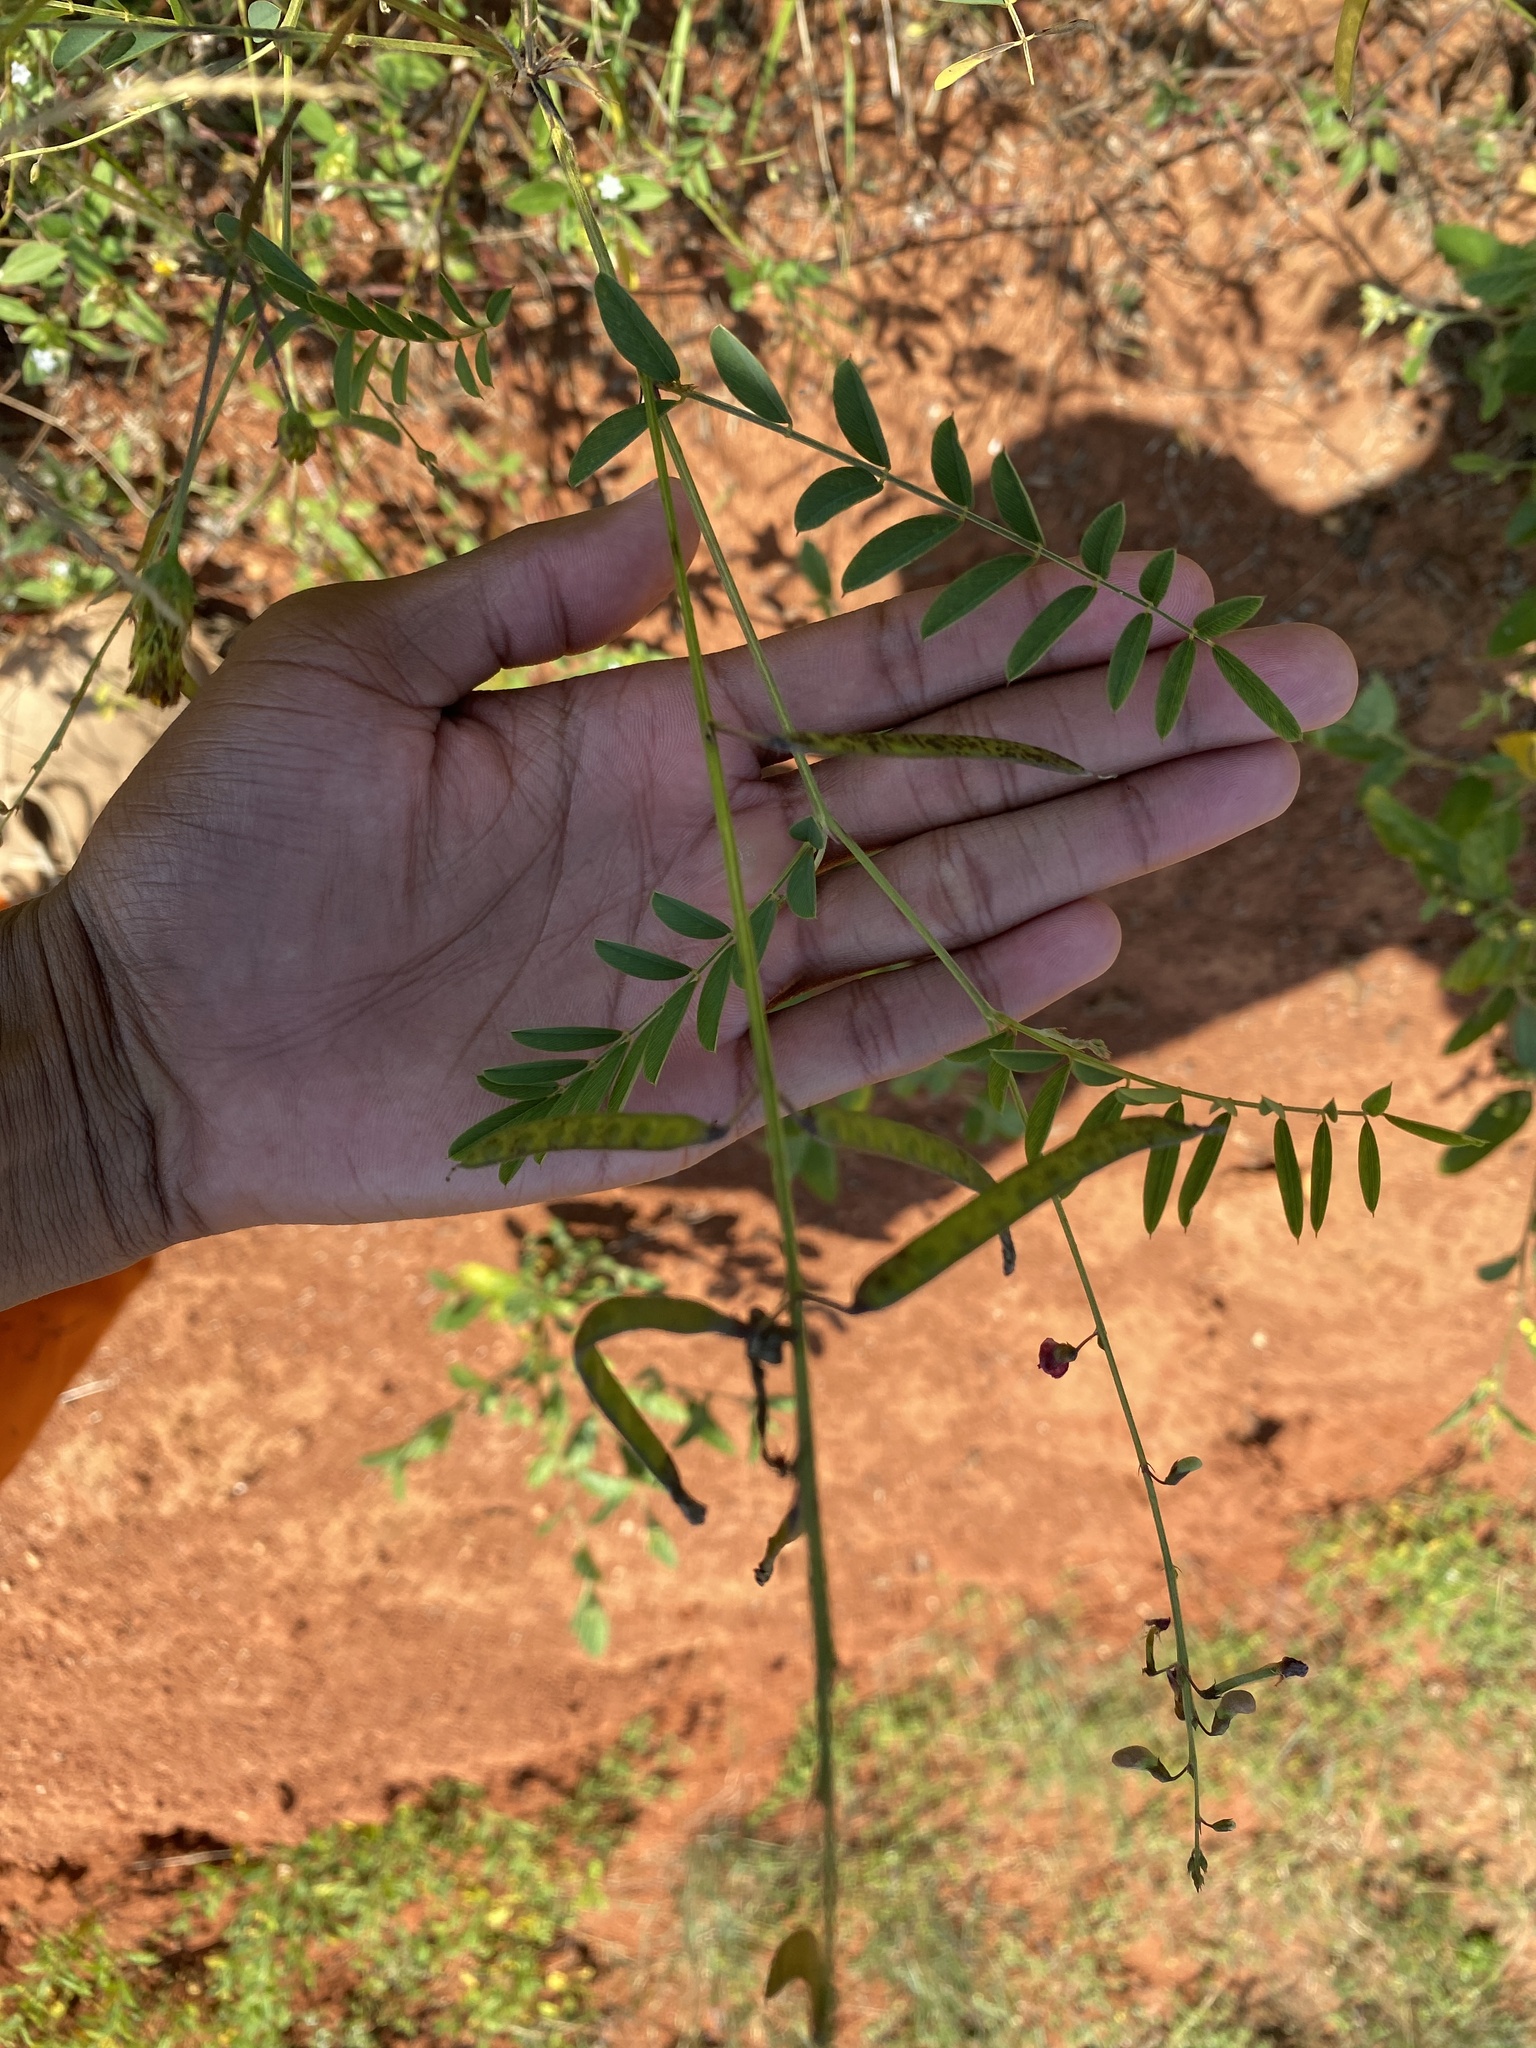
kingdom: Plantae
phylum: Tracheophyta
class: Magnoliopsida
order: Fabales
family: Fabaceae
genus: Tephrosia
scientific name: Tephrosia purpurea
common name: Fishpoison
